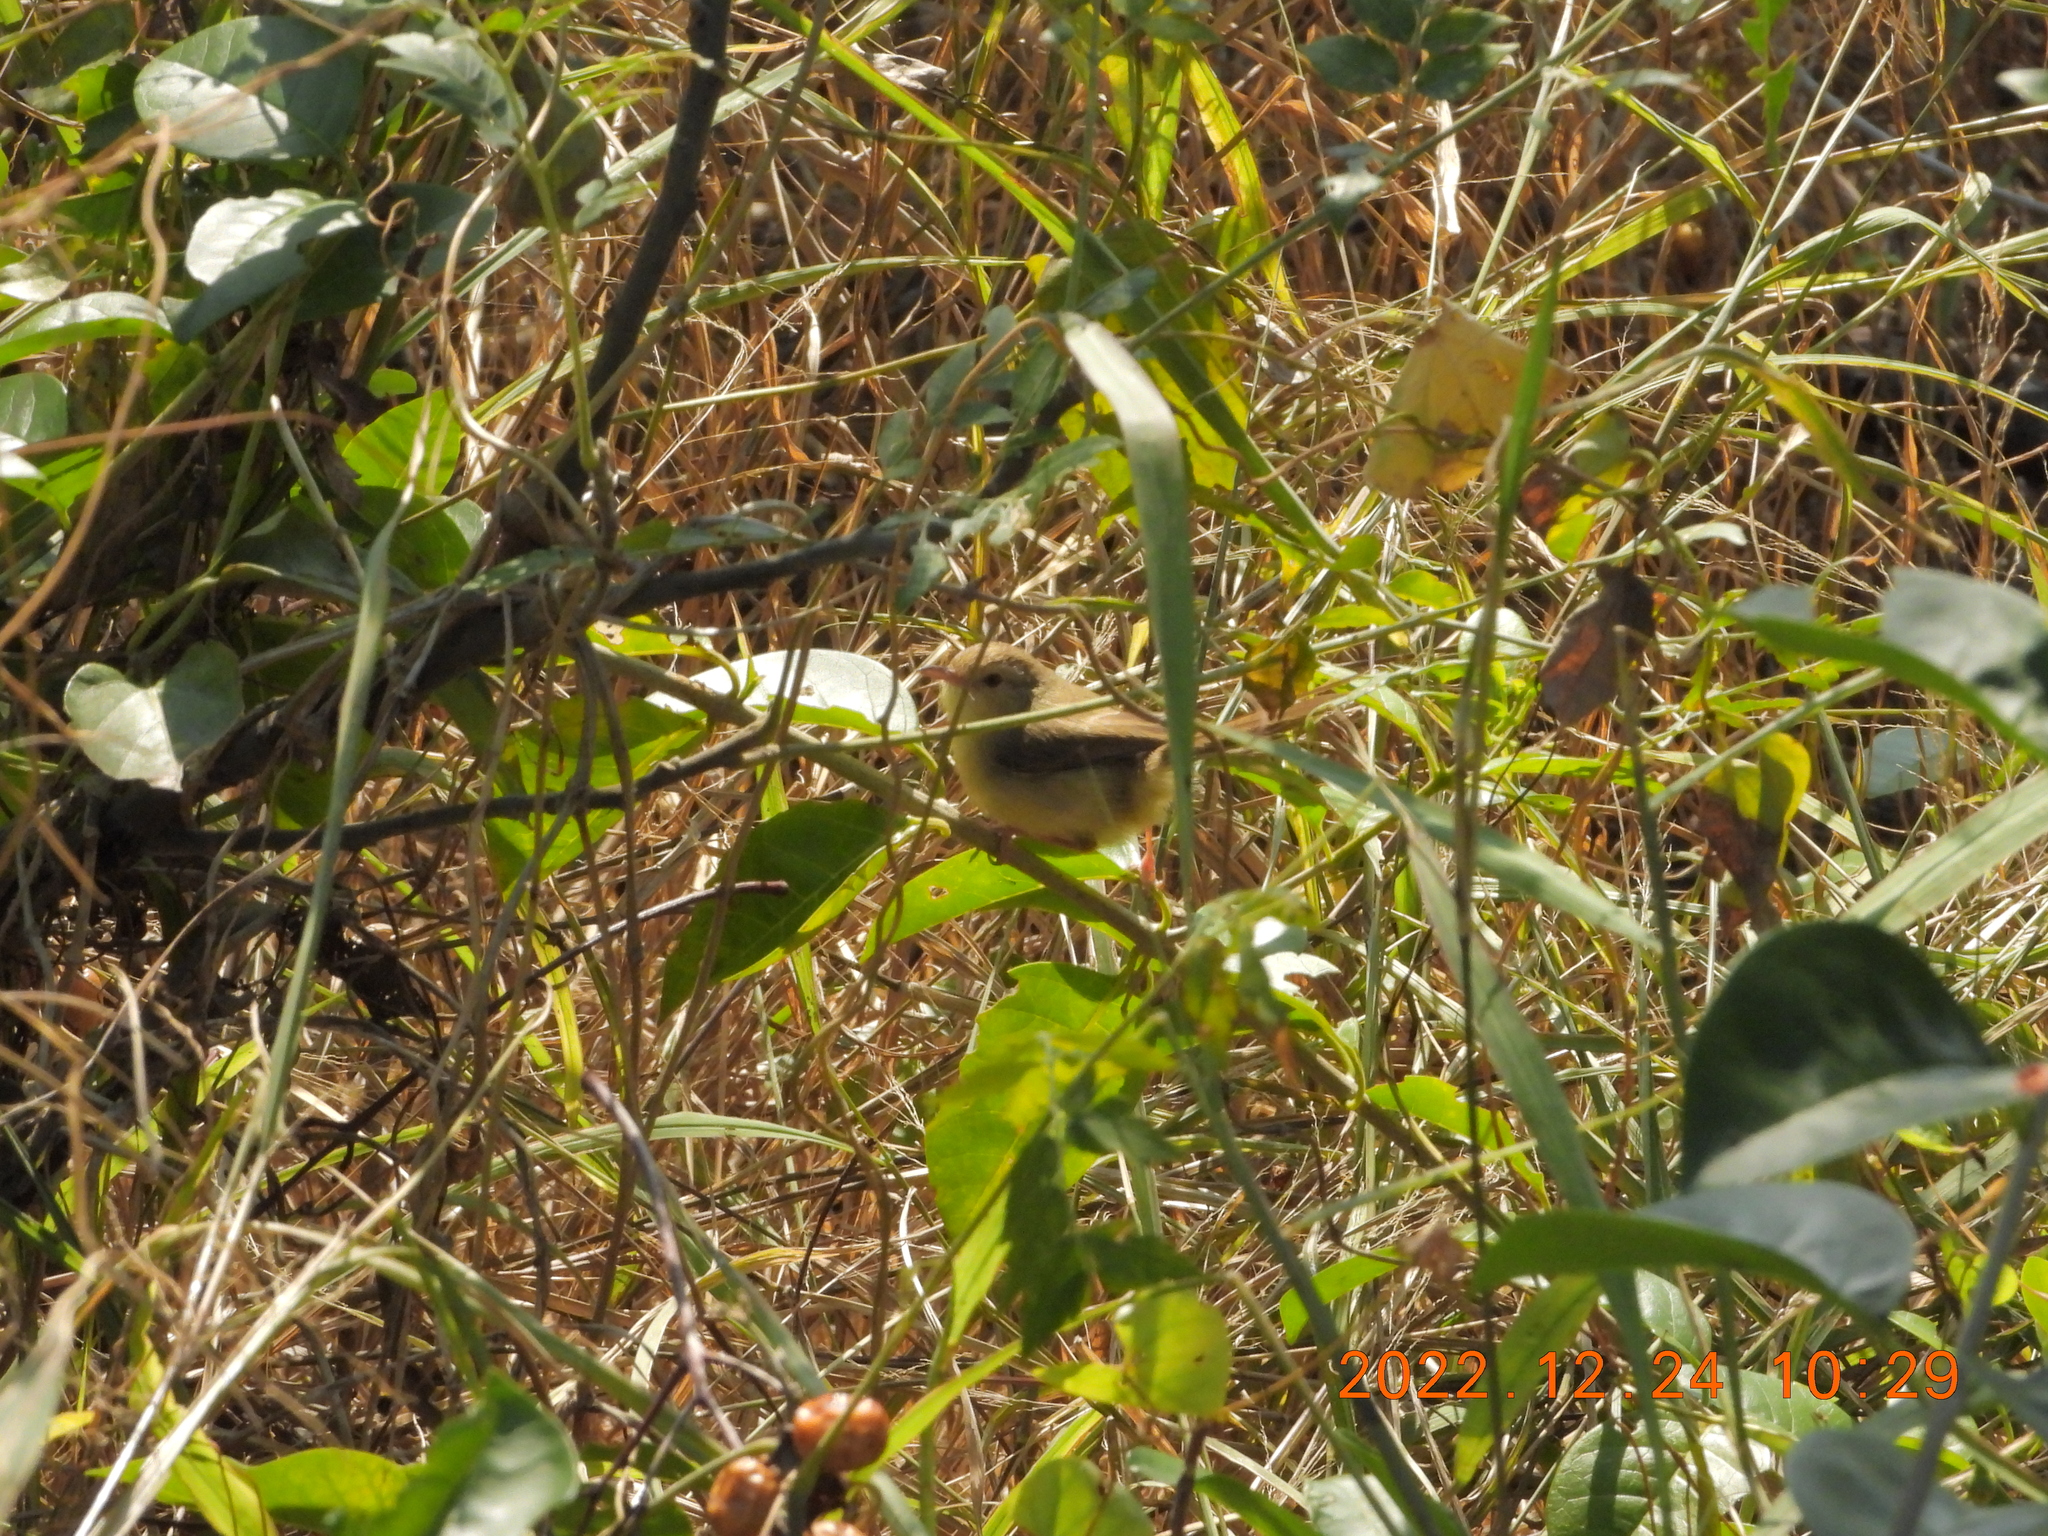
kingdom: Animalia
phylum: Chordata
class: Aves
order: Passeriformes
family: Cisticolidae
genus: Prinia
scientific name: Prinia inornata
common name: Plain prinia
